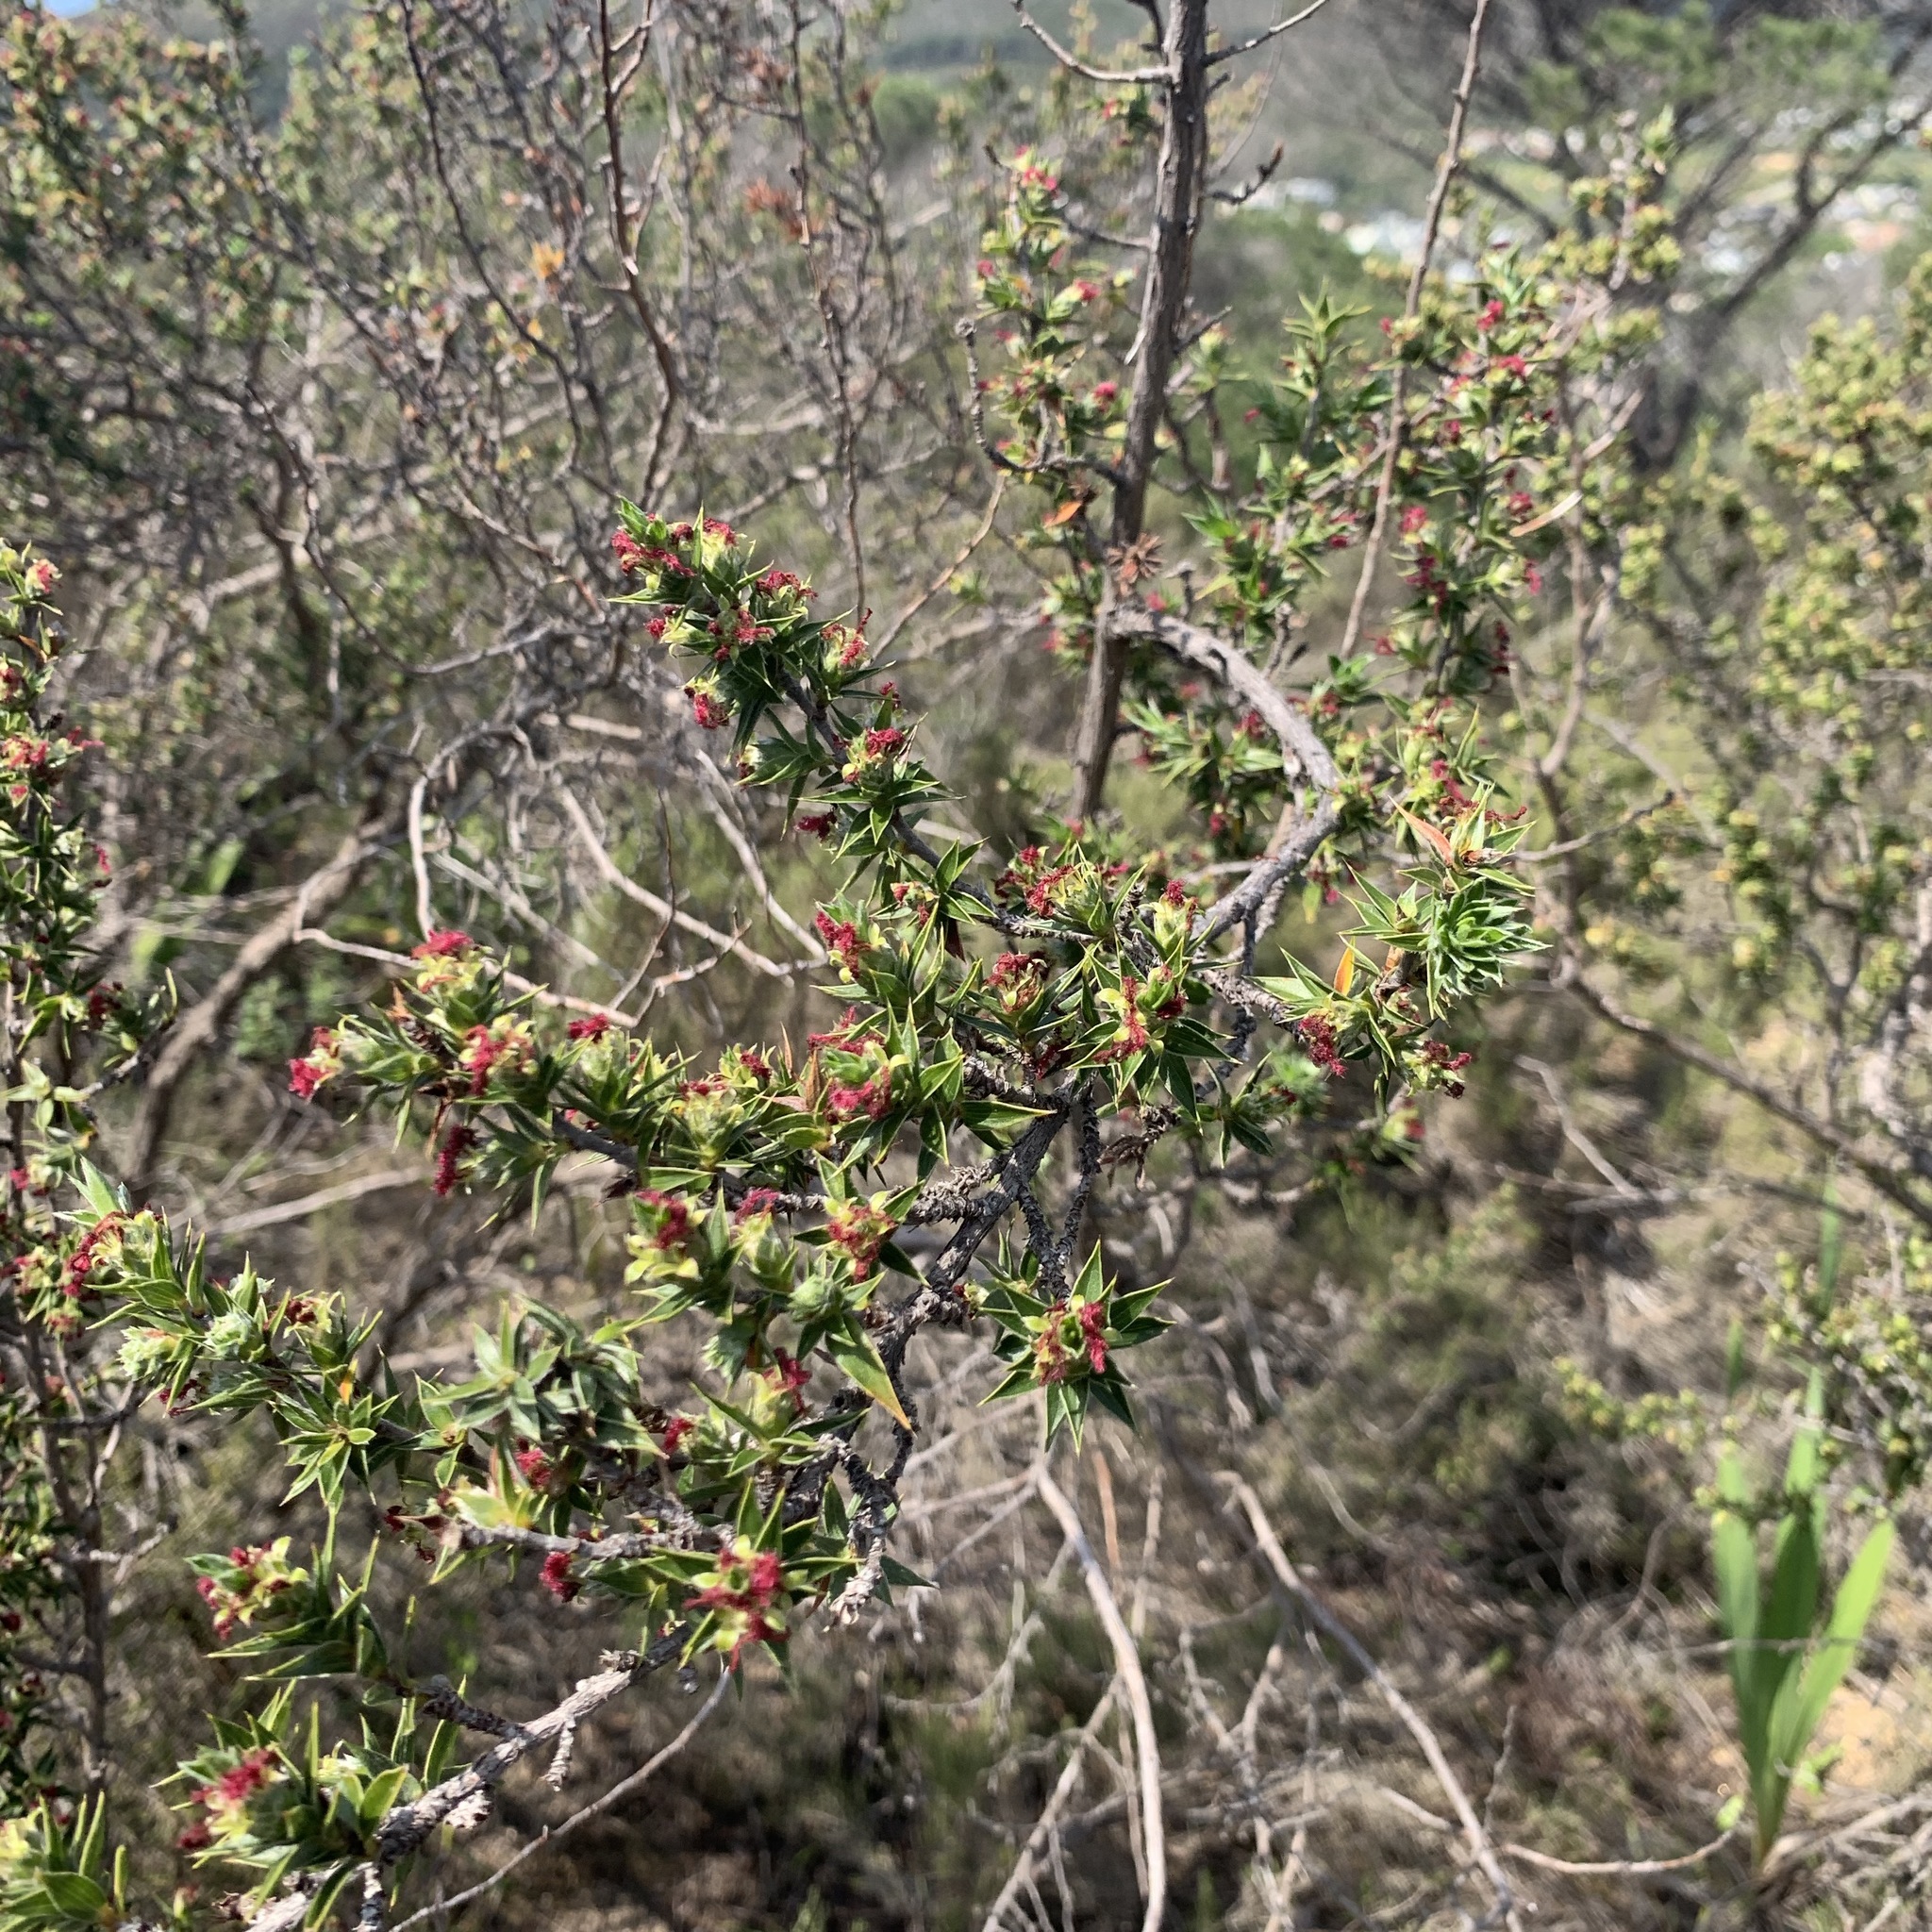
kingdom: Plantae
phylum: Tracheophyta
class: Magnoliopsida
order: Rosales
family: Rosaceae
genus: Cliffortia
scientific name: Cliffortia ruscifolia
